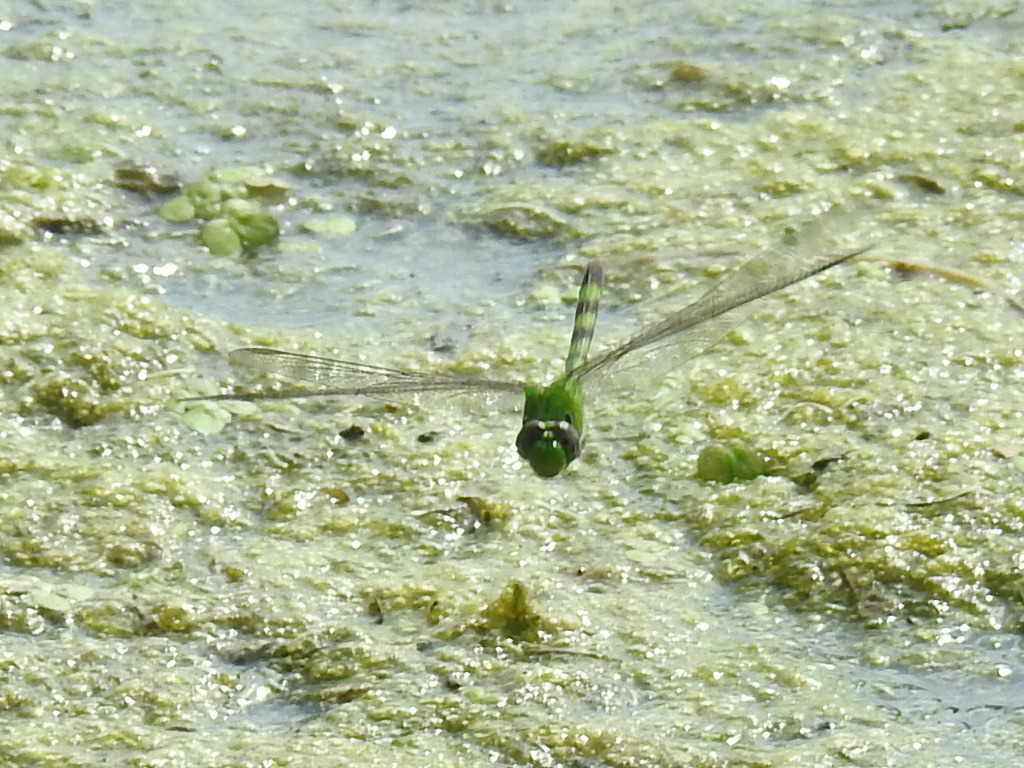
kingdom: Animalia
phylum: Arthropoda
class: Insecta
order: Odonata
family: Libellulidae
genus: Erythemis
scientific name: Erythemis vesiculosa
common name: Great pondhawk
